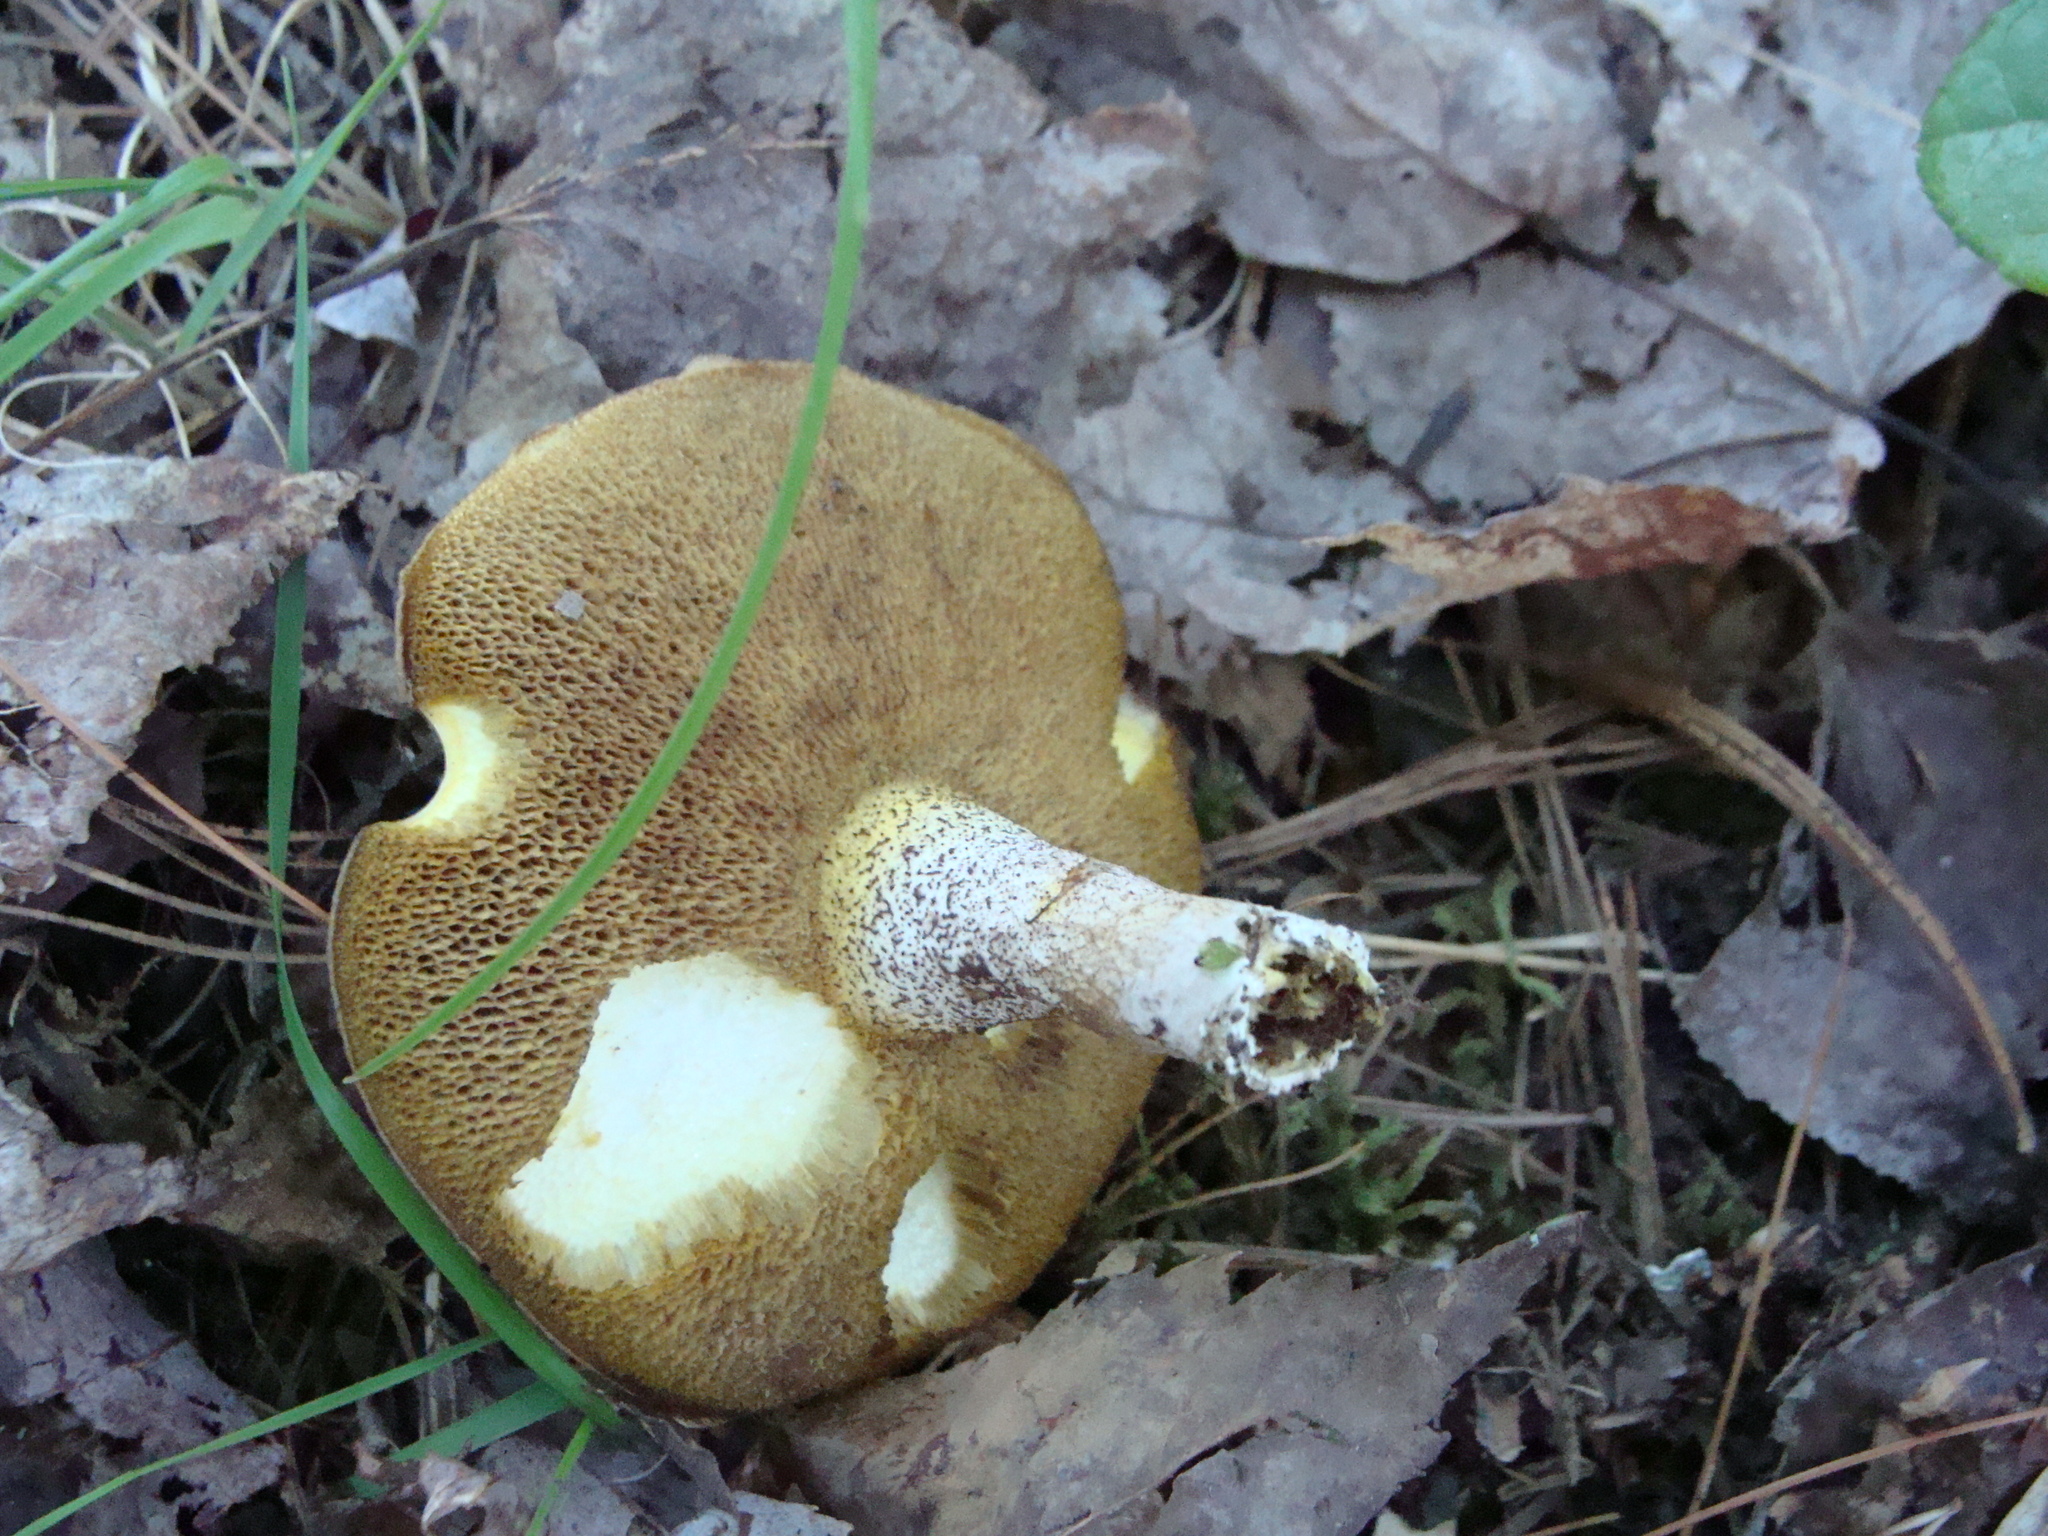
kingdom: Fungi
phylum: Basidiomycota
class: Agaricomycetes
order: Boletales
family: Suillaceae
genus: Suillus
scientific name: Suillus granulatus
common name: Weeping bolete
